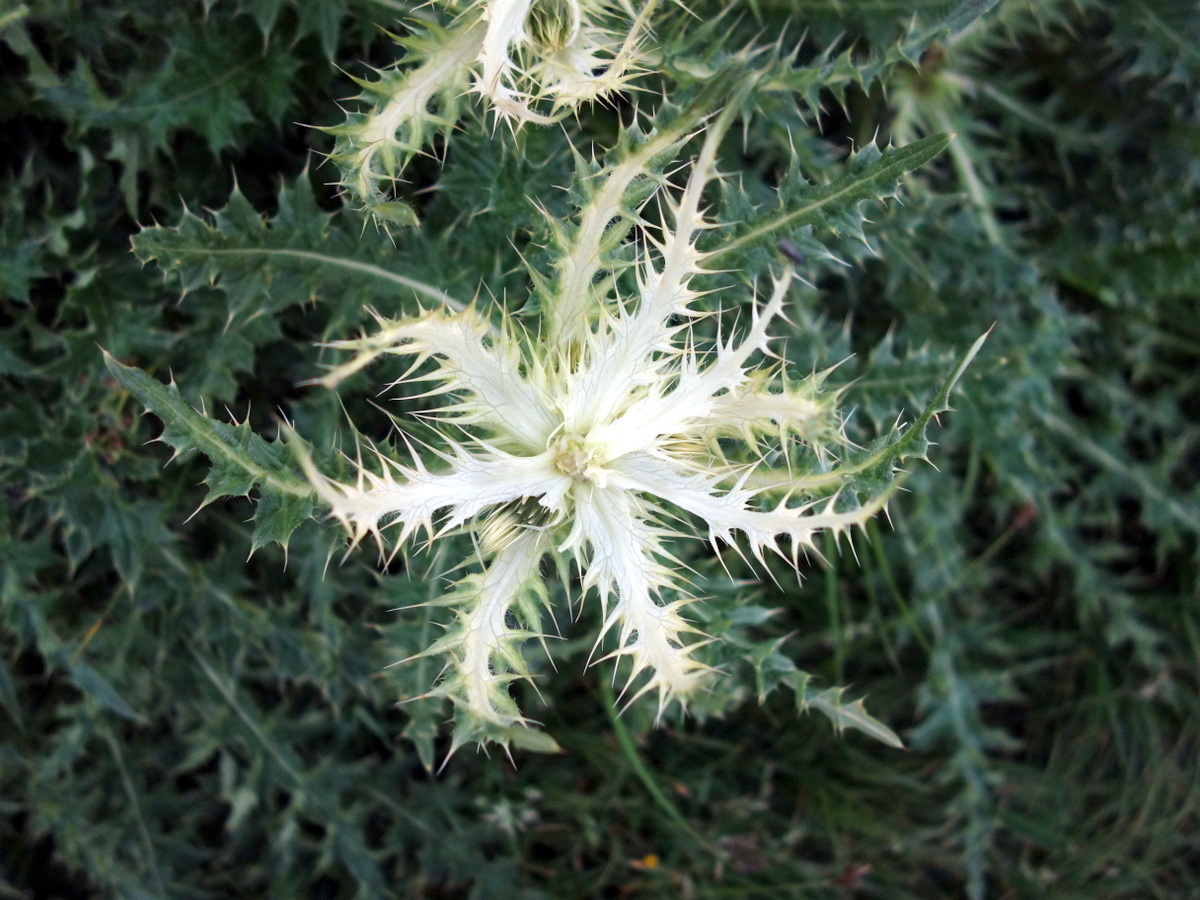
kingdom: Plantae
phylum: Tracheophyta
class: Magnoliopsida
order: Asterales
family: Asteraceae
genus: Cirsium
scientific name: Cirsium spinosissimum
